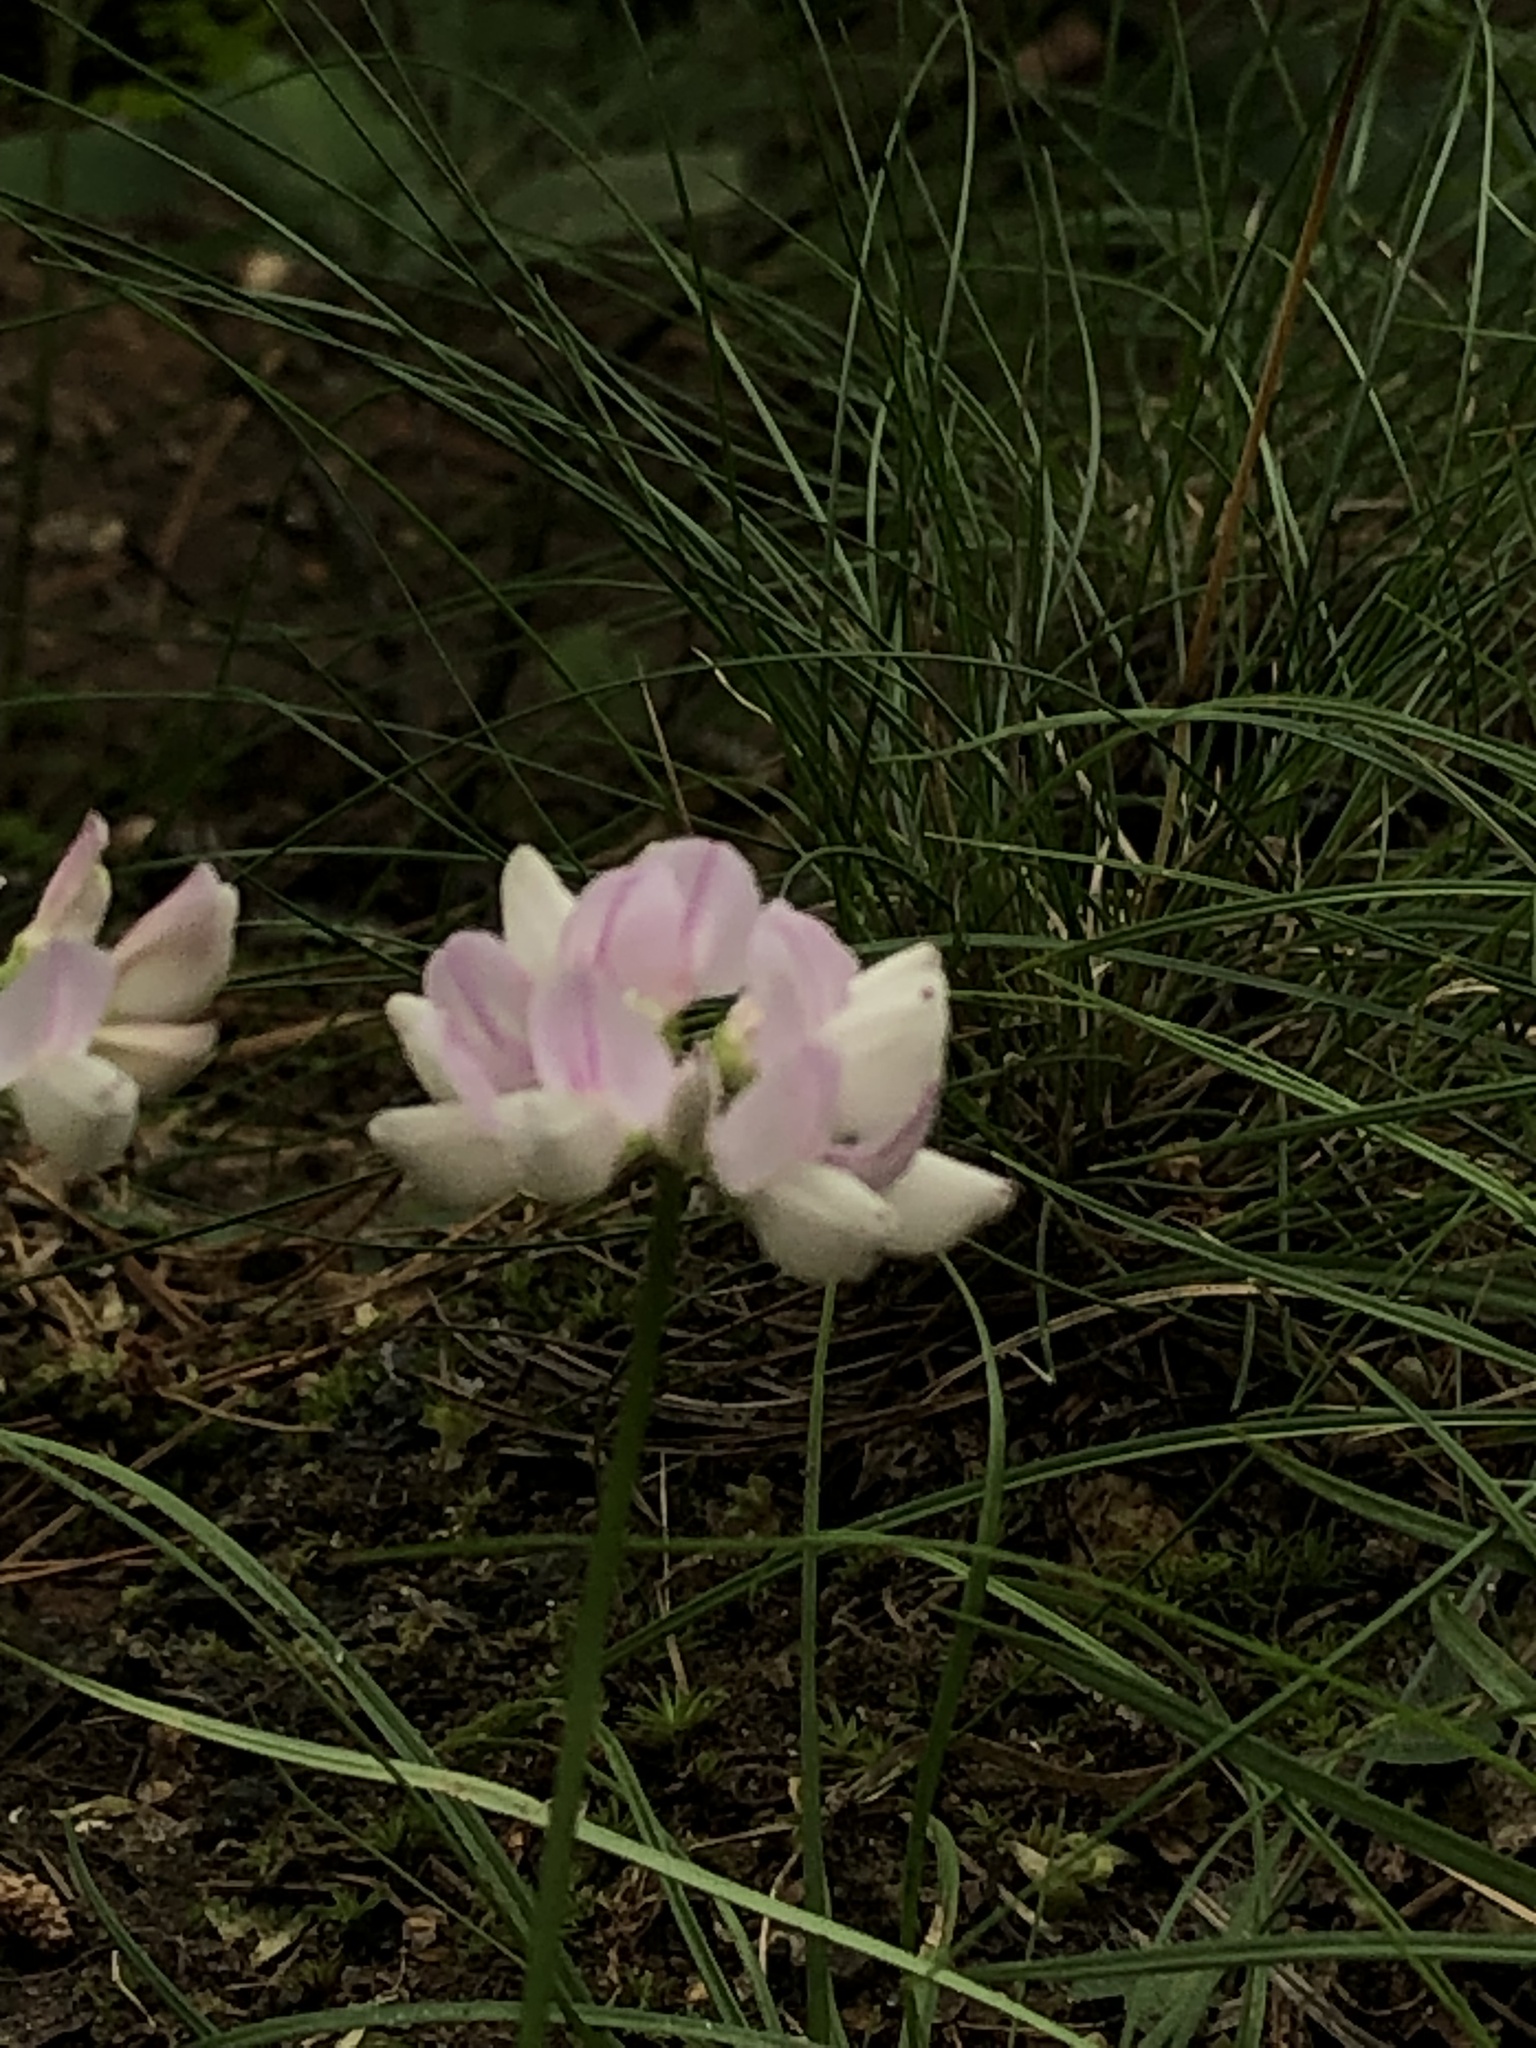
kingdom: Plantae
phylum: Tracheophyta
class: Magnoliopsida
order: Fabales
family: Fabaceae
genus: Coronilla
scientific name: Coronilla varia
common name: Crownvetch
